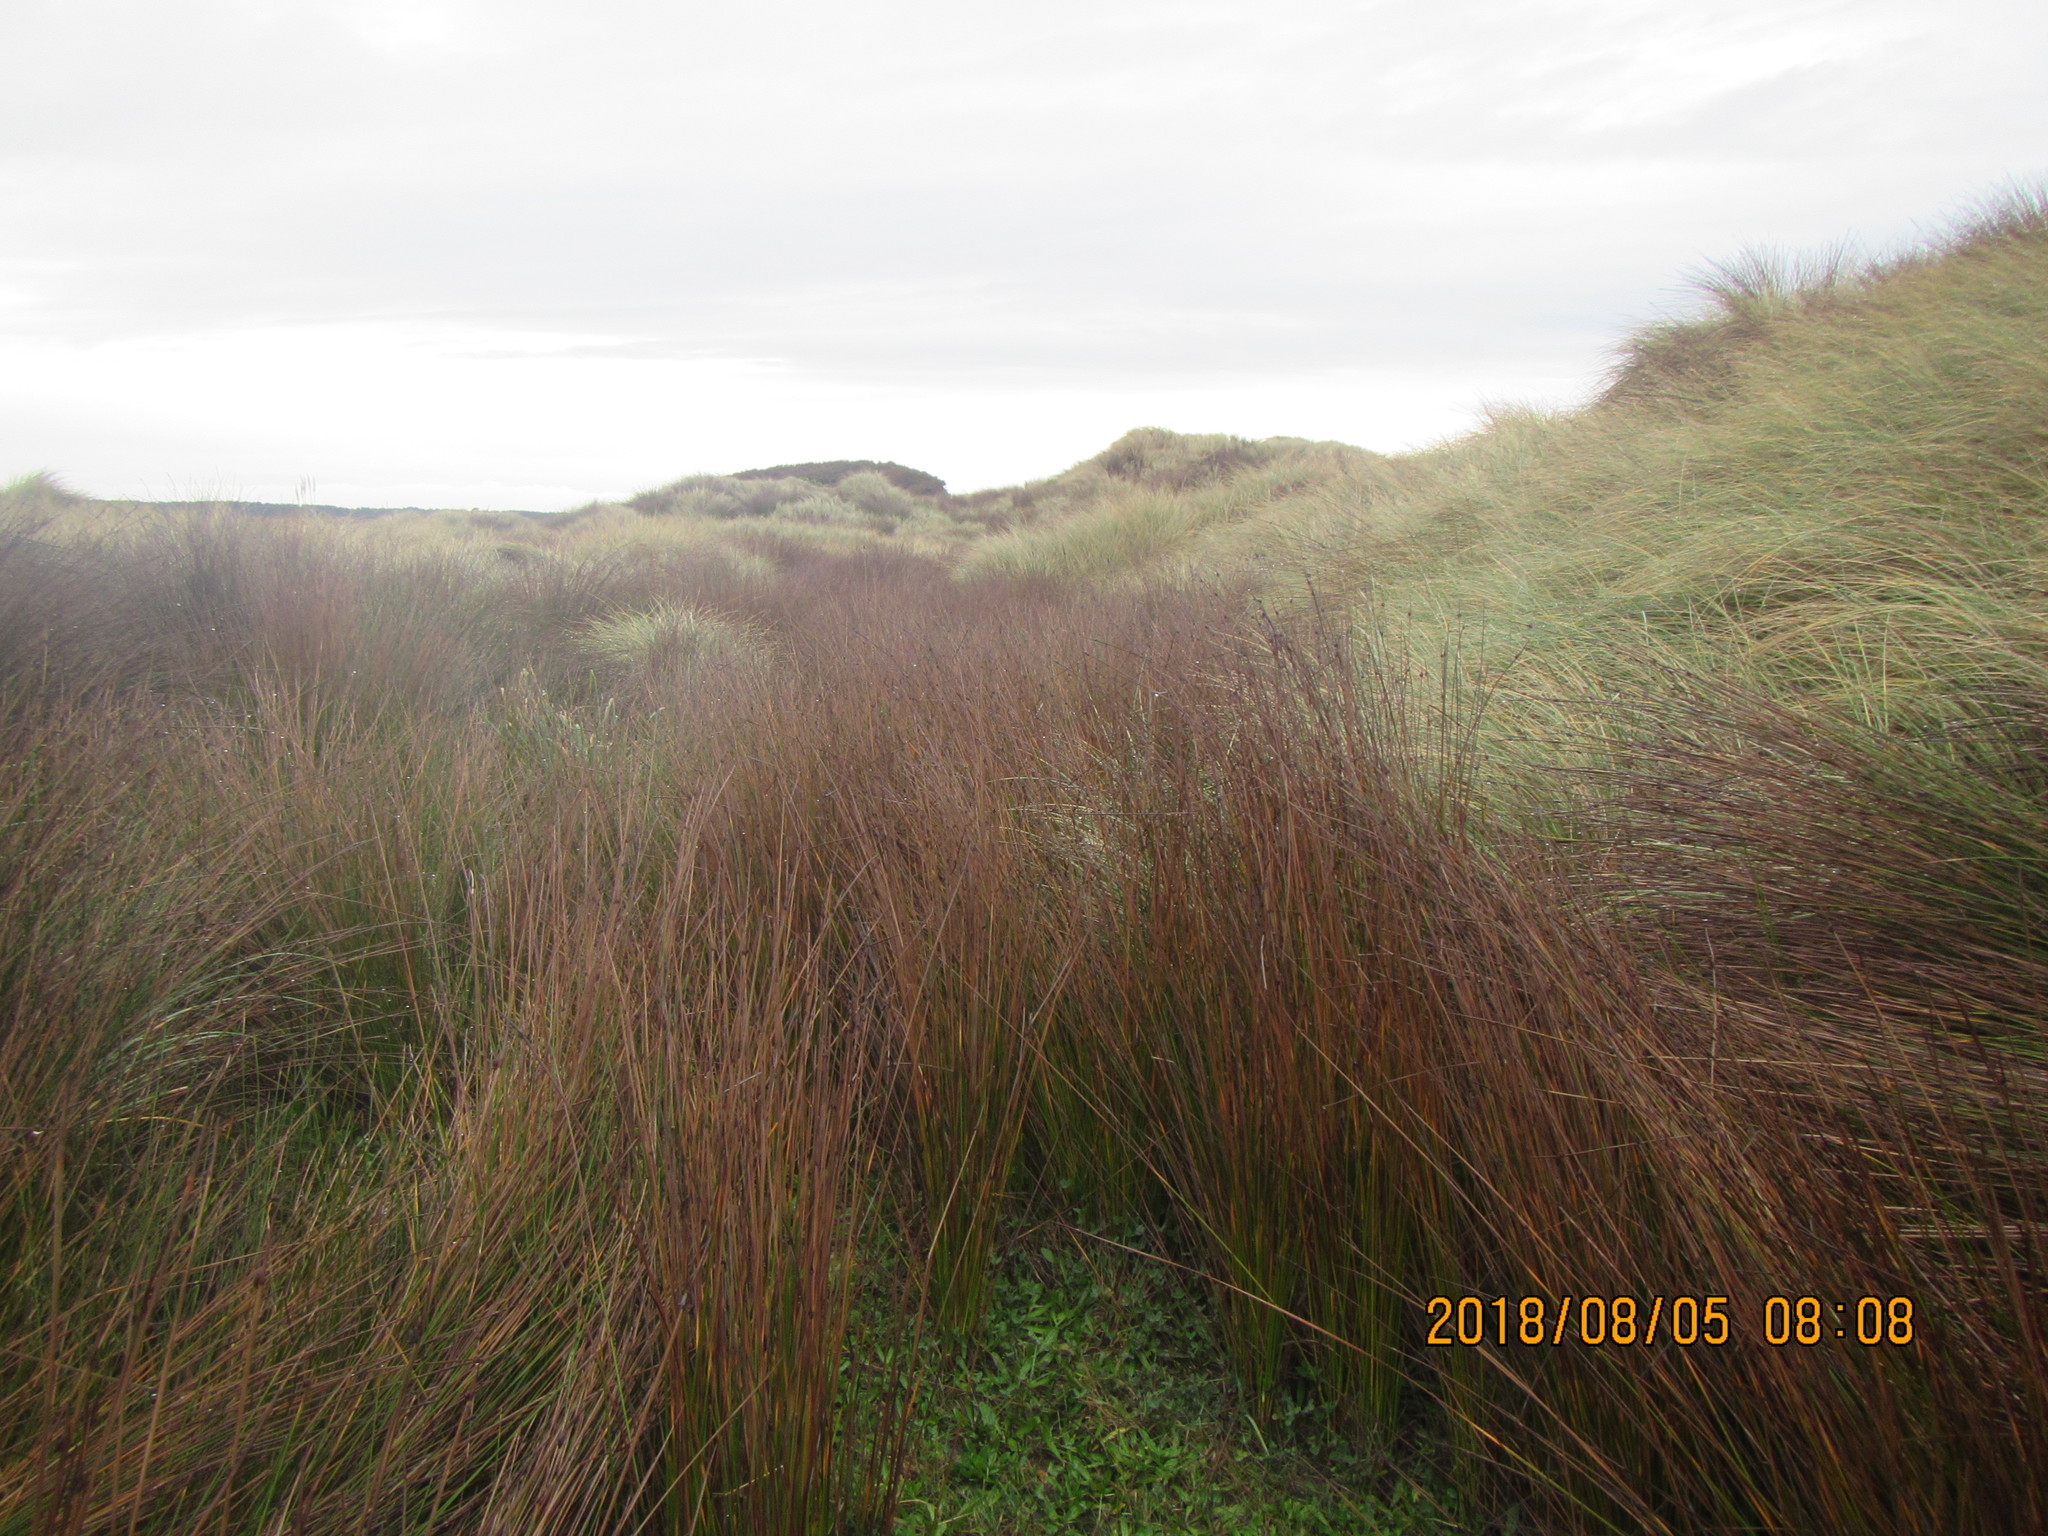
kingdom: Plantae
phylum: Tracheophyta
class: Liliopsida
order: Poales
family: Cyperaceae
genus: Ficinia
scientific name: Ficinia nodosa
